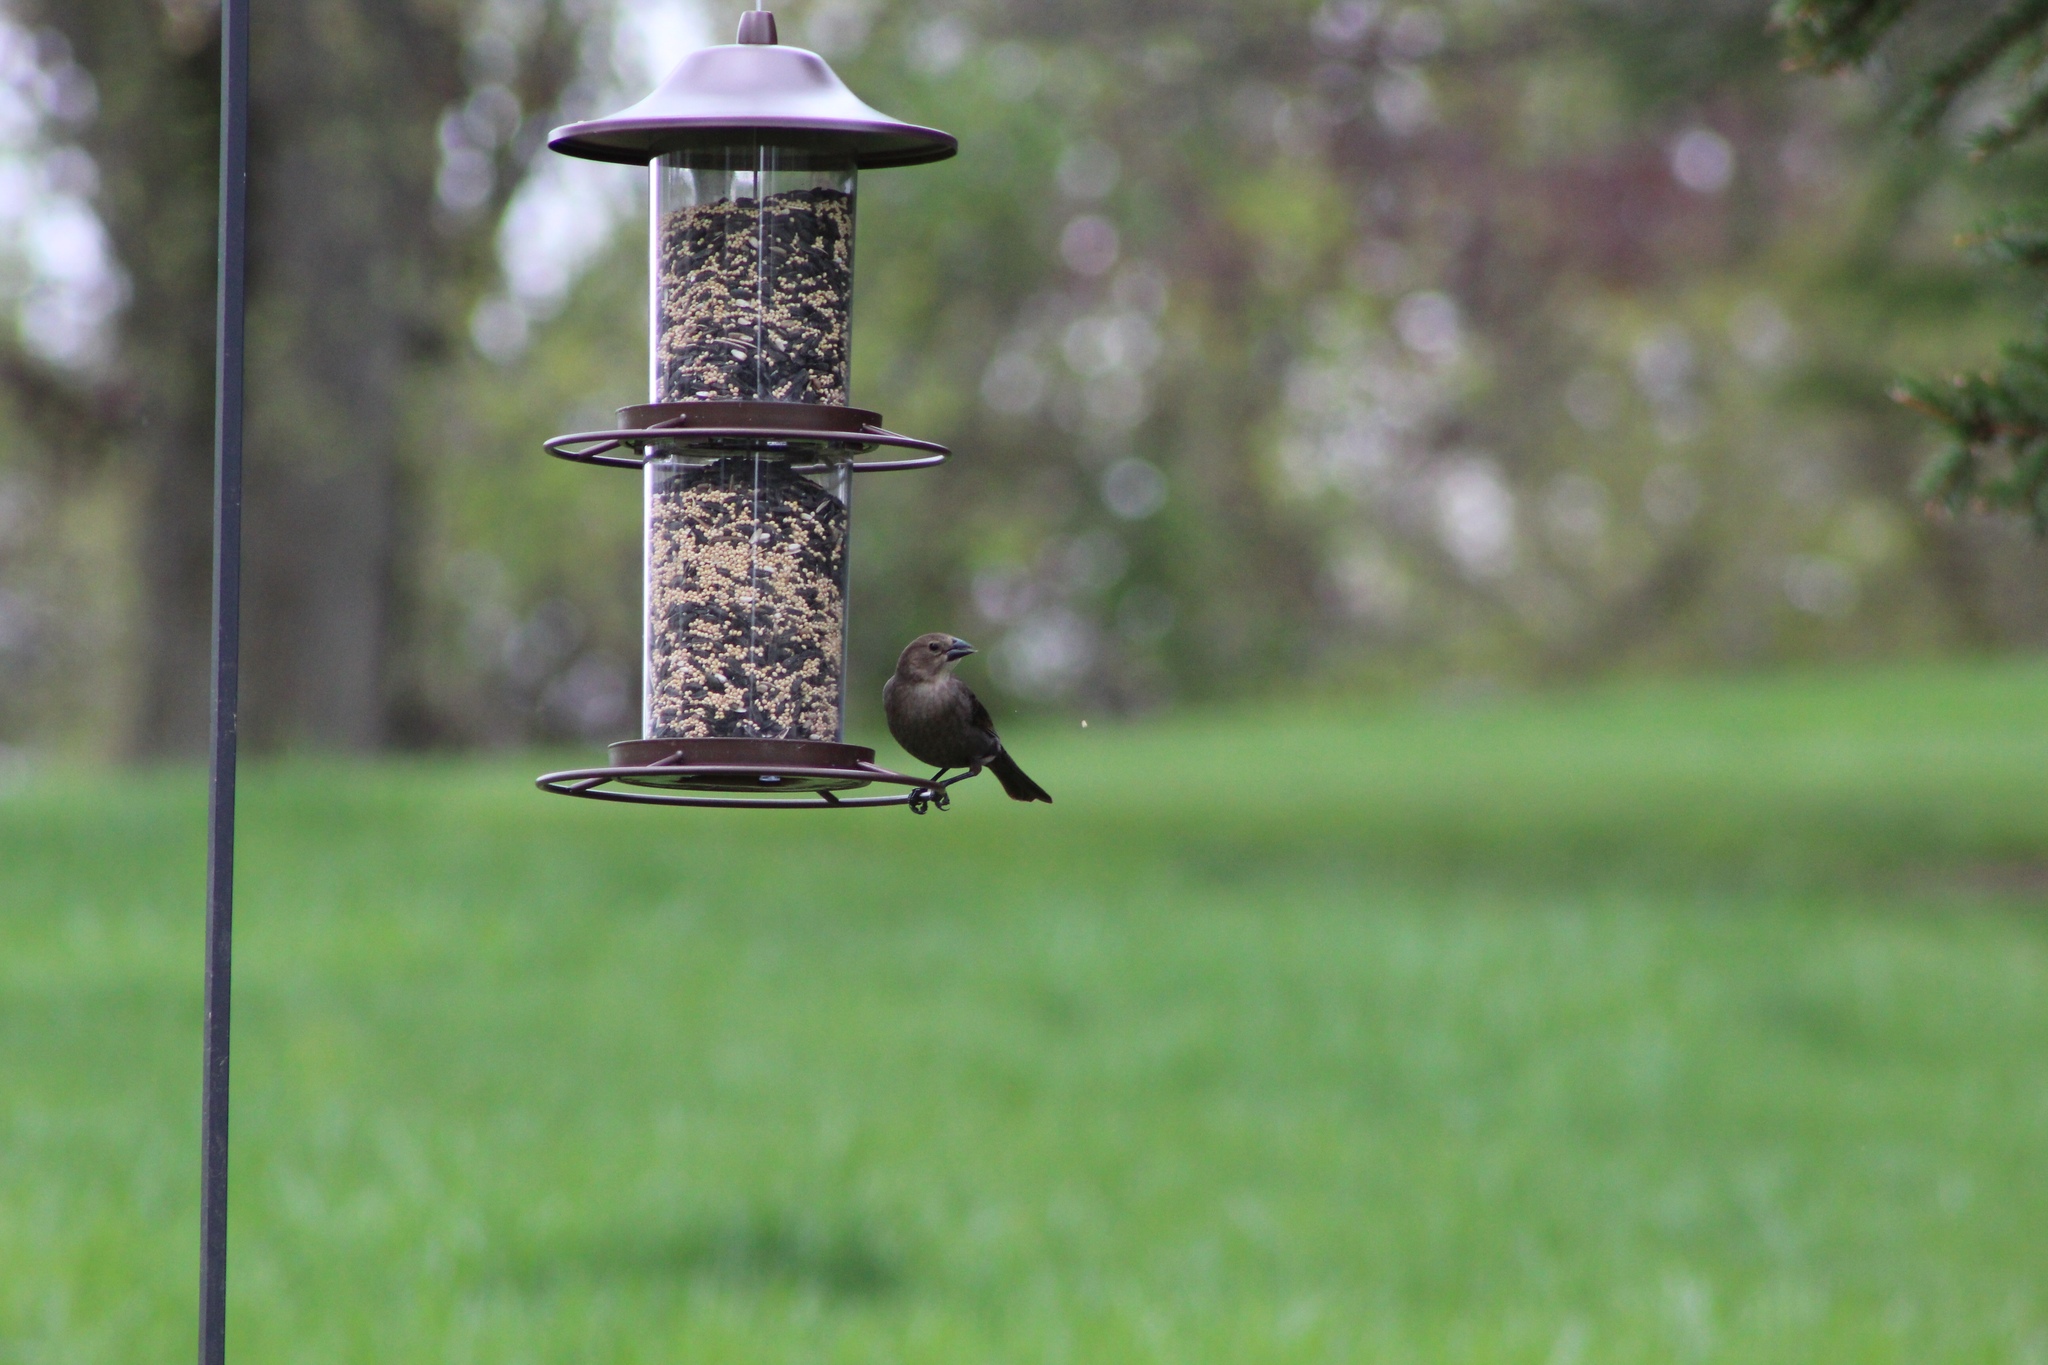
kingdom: Animalia
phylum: Chordata
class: Aves
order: Passeriformes
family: Icteridae
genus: Molothrus
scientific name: Molothrus ater
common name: Brown-headed cowbird
